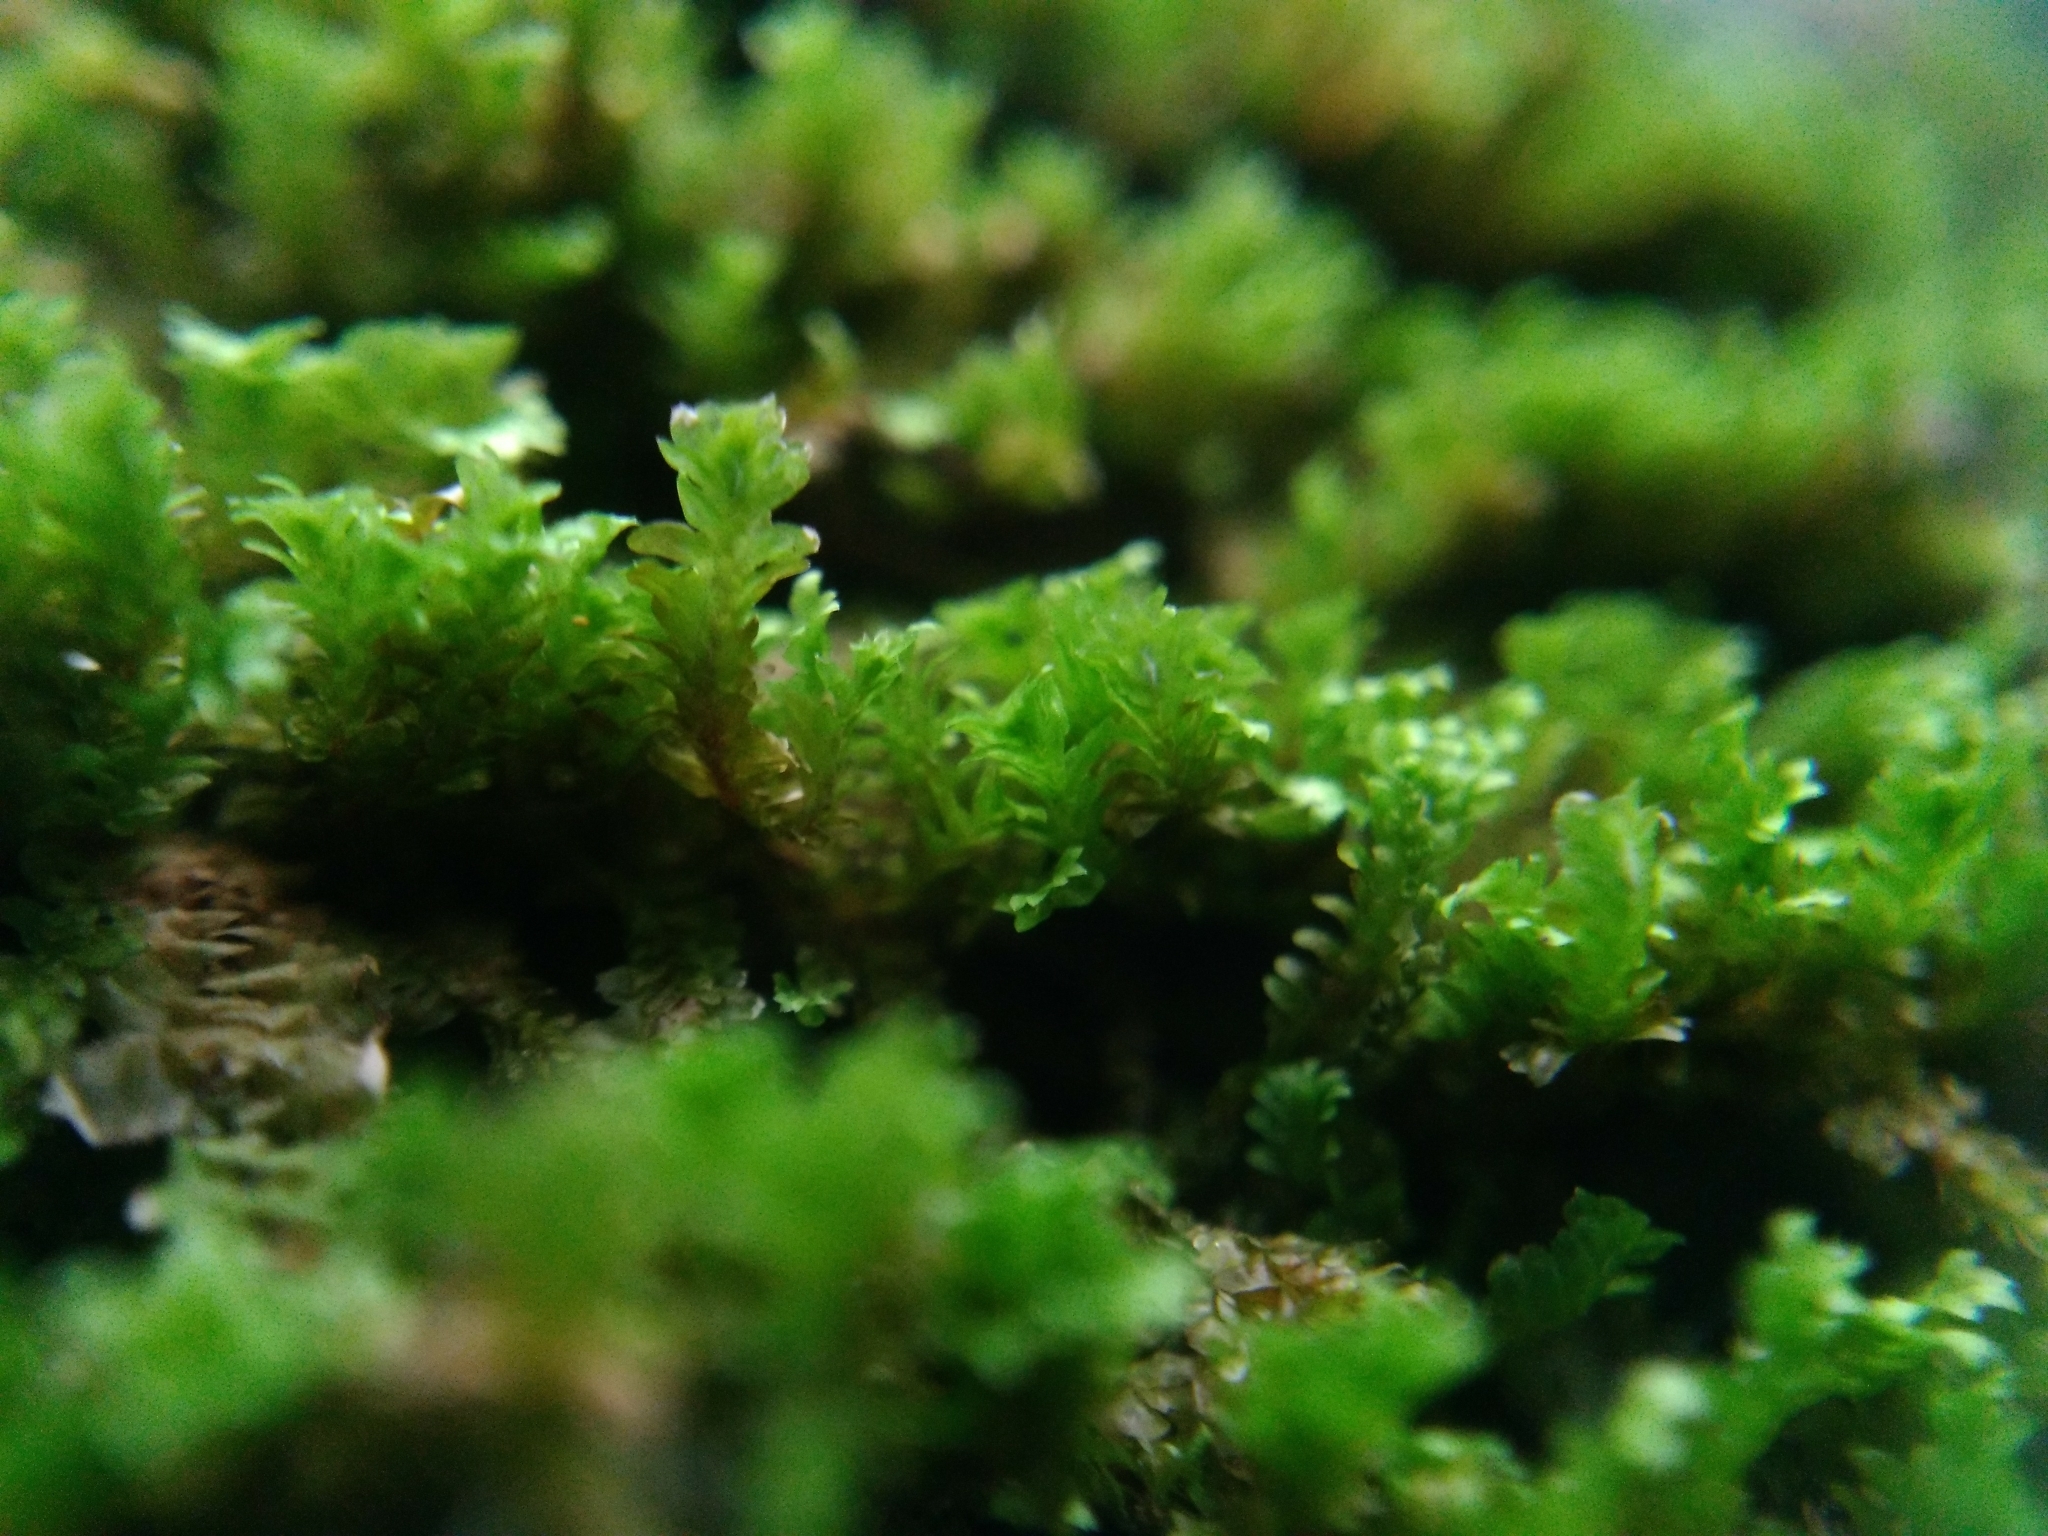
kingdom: Plantae
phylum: Bryophyta
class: Bryopsida
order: Hypnales
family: Neckeraceae
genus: Neckera
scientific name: Neckera pennata
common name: Feathery neckera
